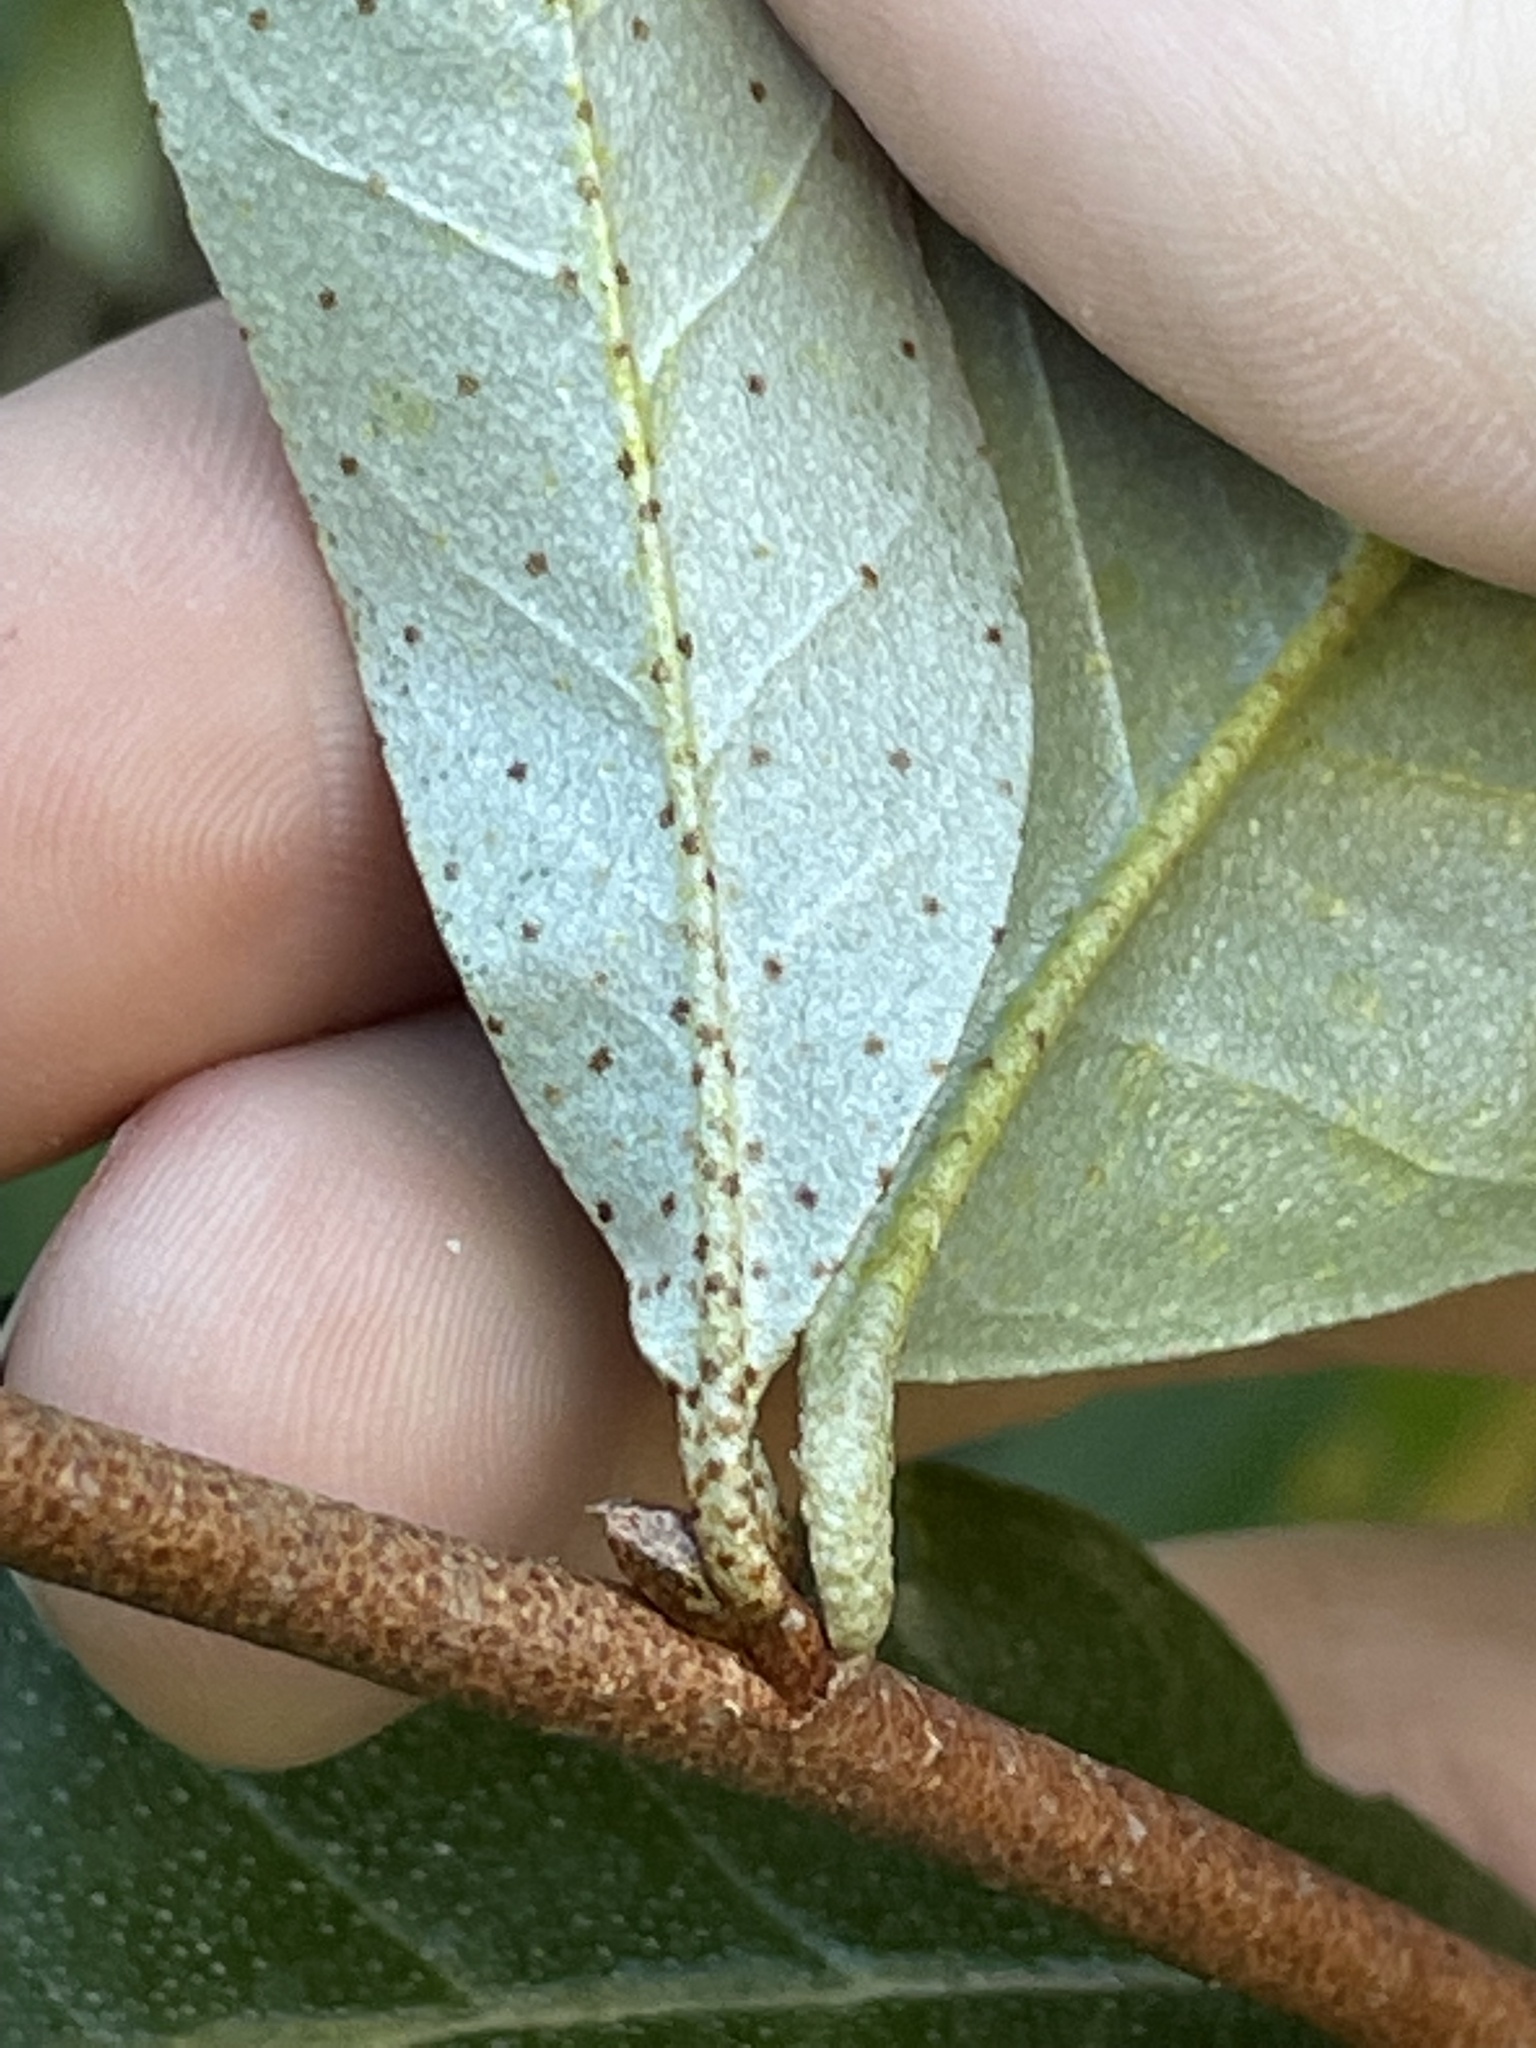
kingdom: Plantae
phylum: Tracheophyta
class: Magnoliopsida
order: Rosales
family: Elaeagnaceae
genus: Elaeagnus
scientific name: Elaeagnus umbellata
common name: Autumn olive
